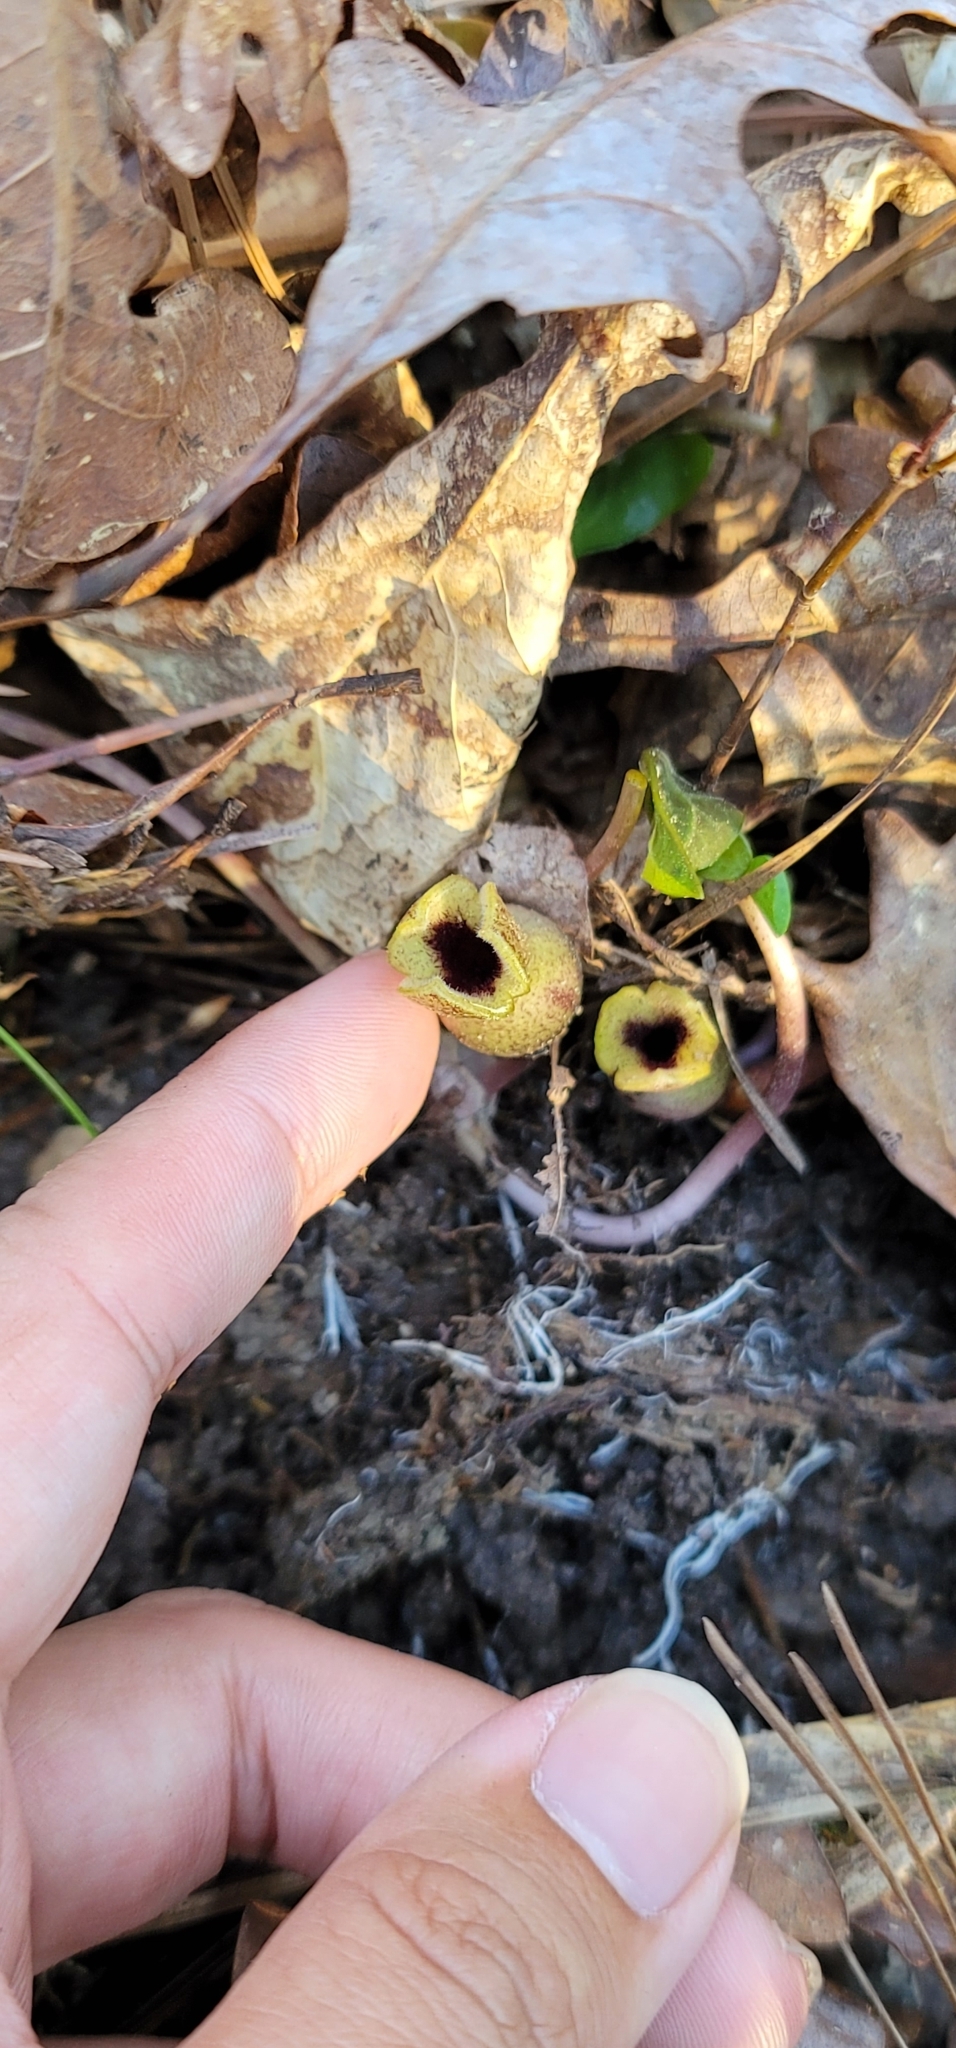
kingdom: Plantae
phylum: Tracheophyta
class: Magnoliopsida
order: Piperales
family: Aristolochiaceae
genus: Hexastylis
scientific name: Hexastylis arifolia
